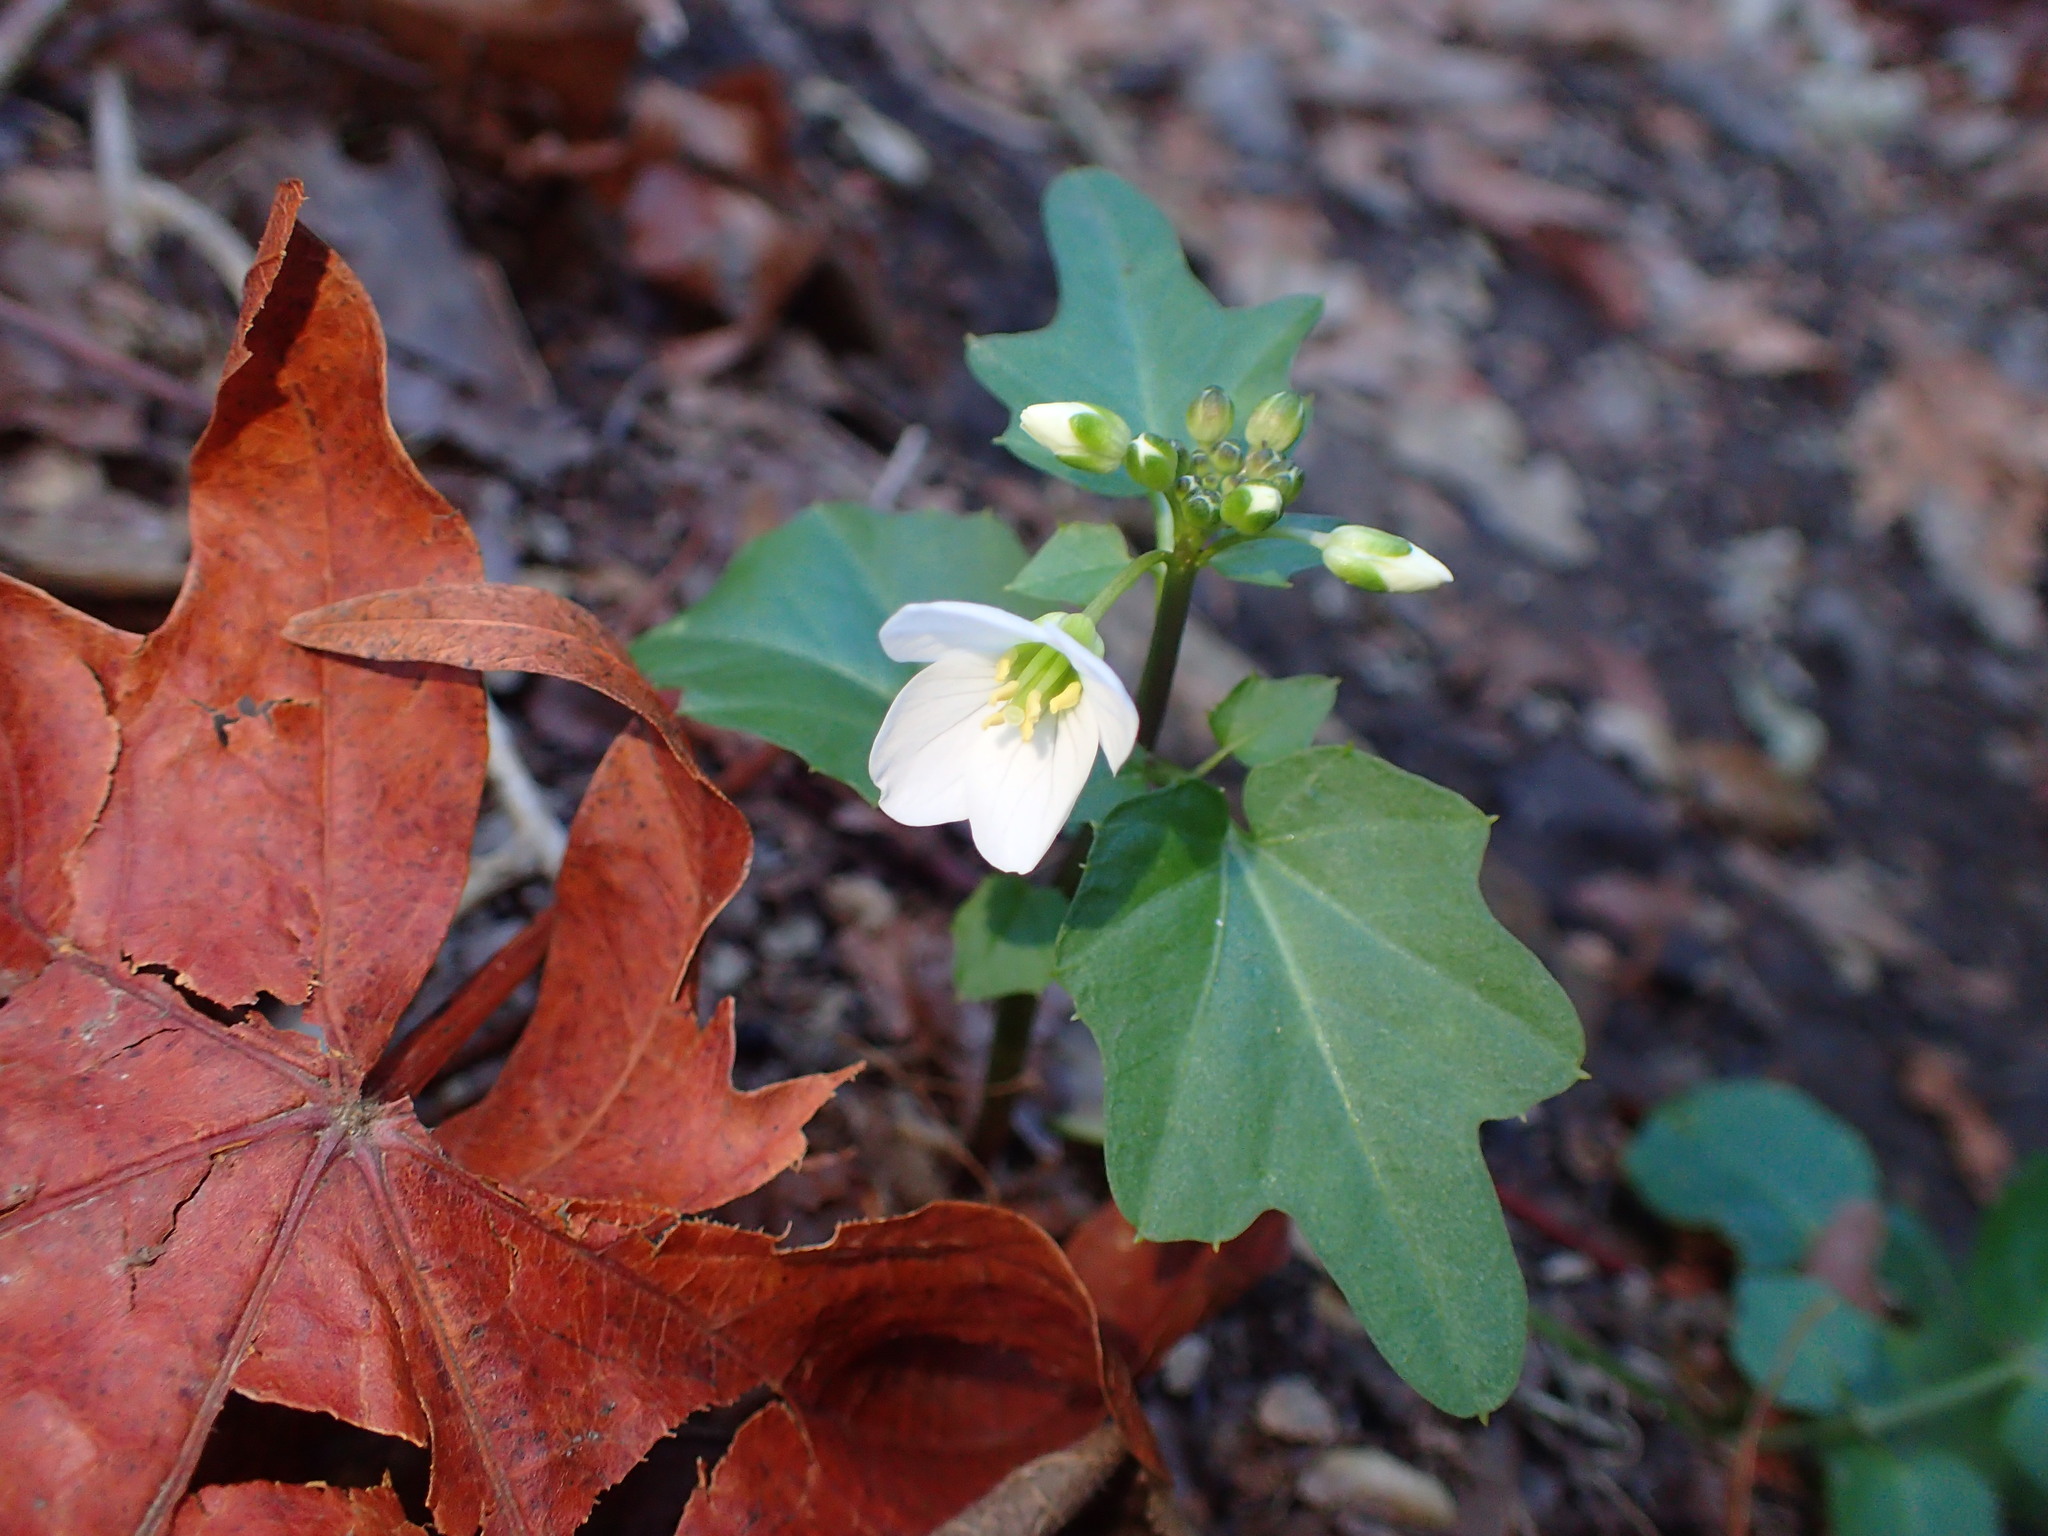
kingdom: Plantae
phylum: Tracheophyta
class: Magnoliopsida
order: Brassicales
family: Brassicaceae
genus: Cardamine
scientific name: Cardamine californica
